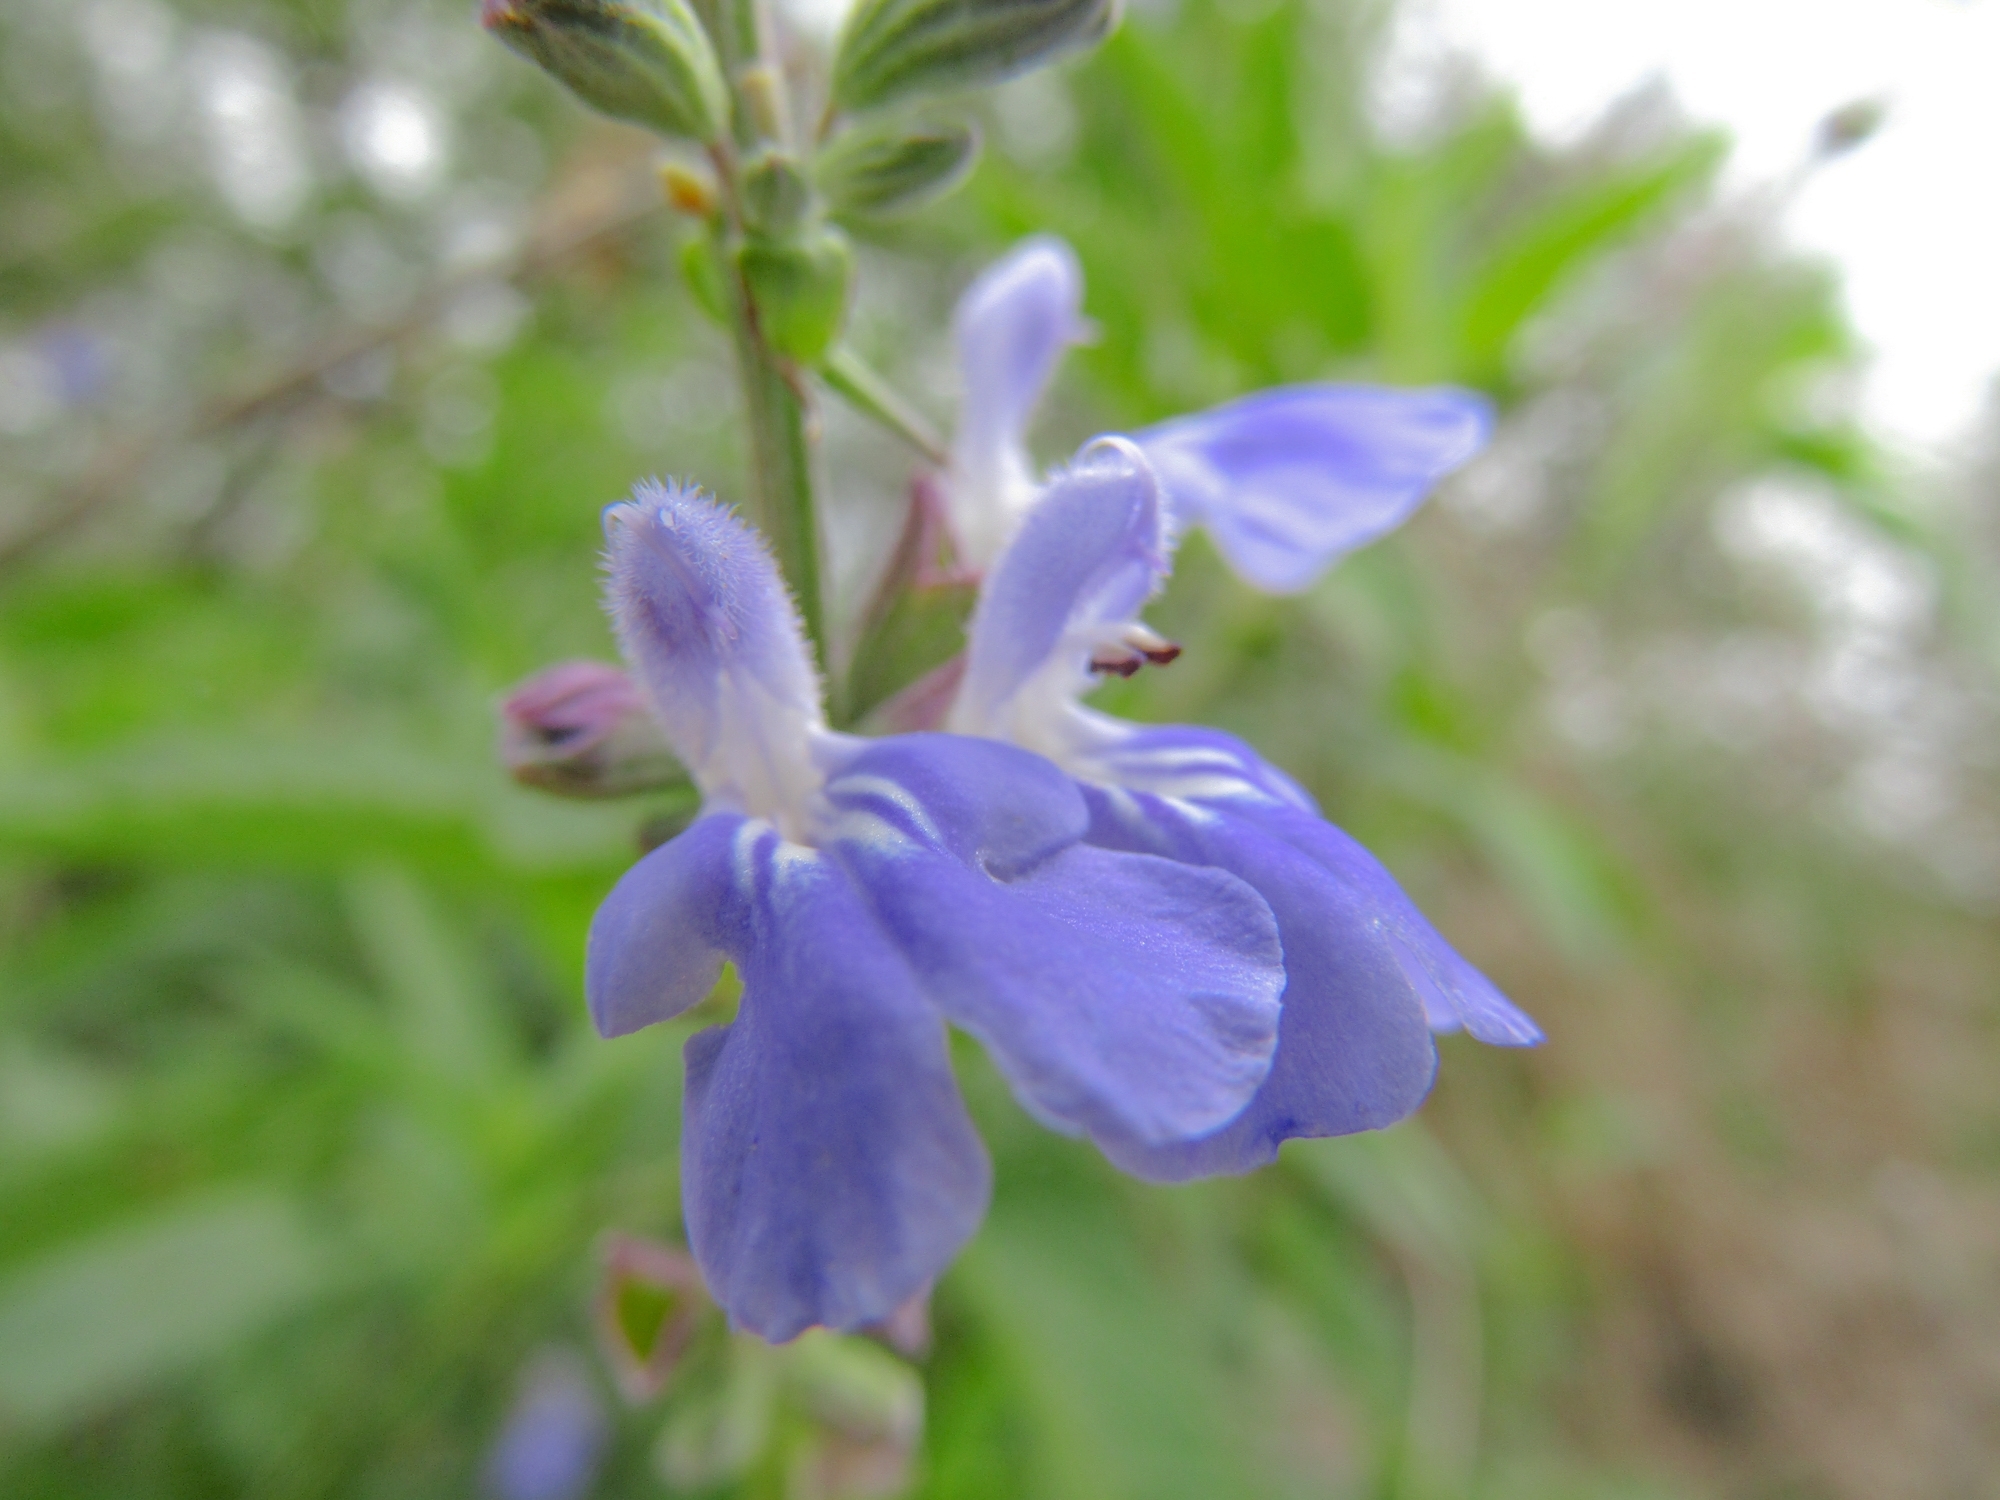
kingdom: Plantae
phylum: Tracheophyta
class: Magnoliopsida
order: Lamiales
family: Lamiaceae
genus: Salvia
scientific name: Salvia pallida
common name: Pale sage
